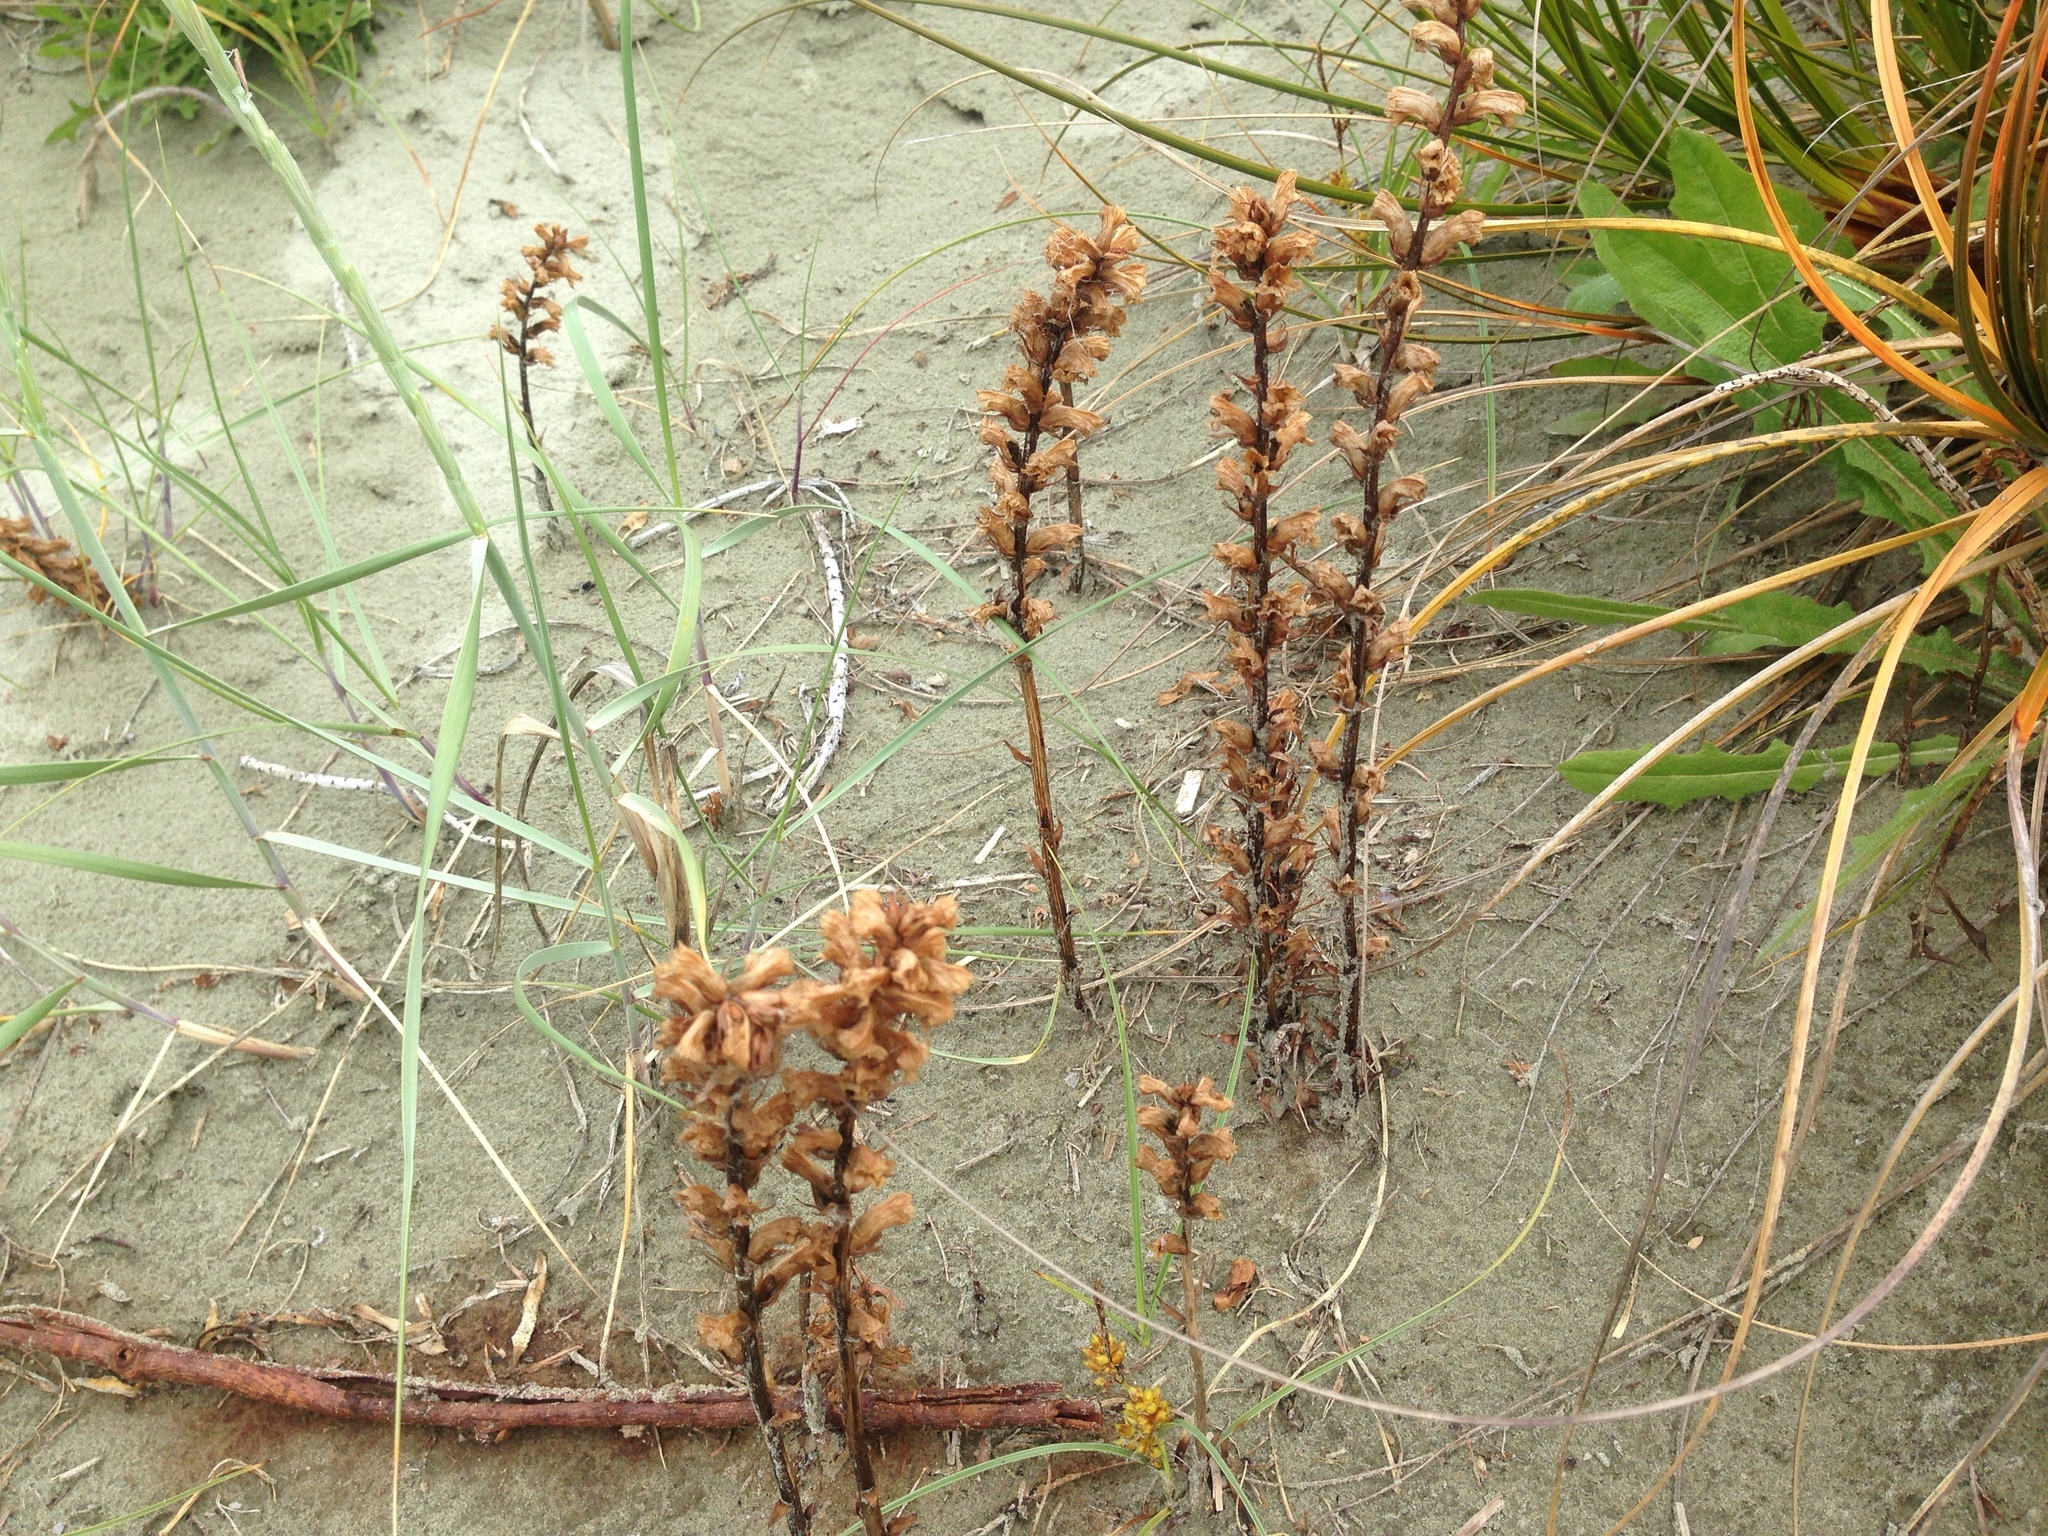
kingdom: Plantae
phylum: Tracheophyta
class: Magnoliopsida
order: Lamiales
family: Orobanchaceae
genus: Orobanche
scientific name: Orobanche minor
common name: Common broomrape
